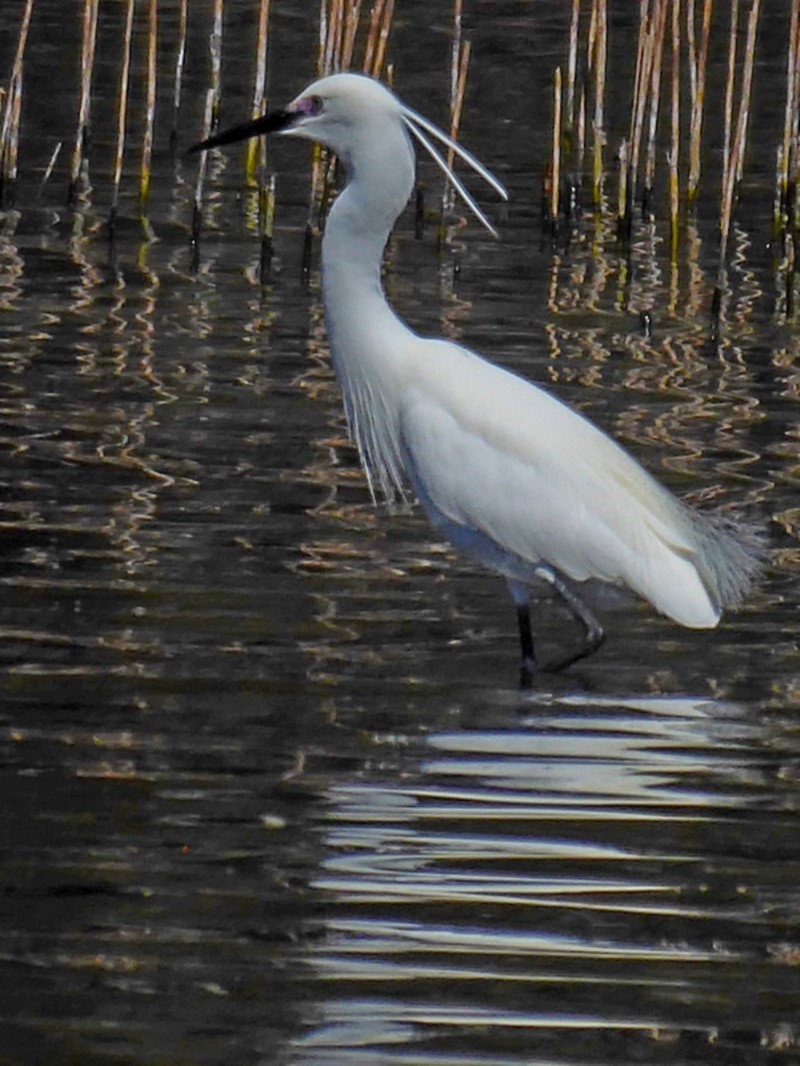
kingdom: Animalia
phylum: Chordata
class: Aves
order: Pelecaniformes
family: Ardeidae
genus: Egretta
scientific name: Egretta garzetta
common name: Little egret
